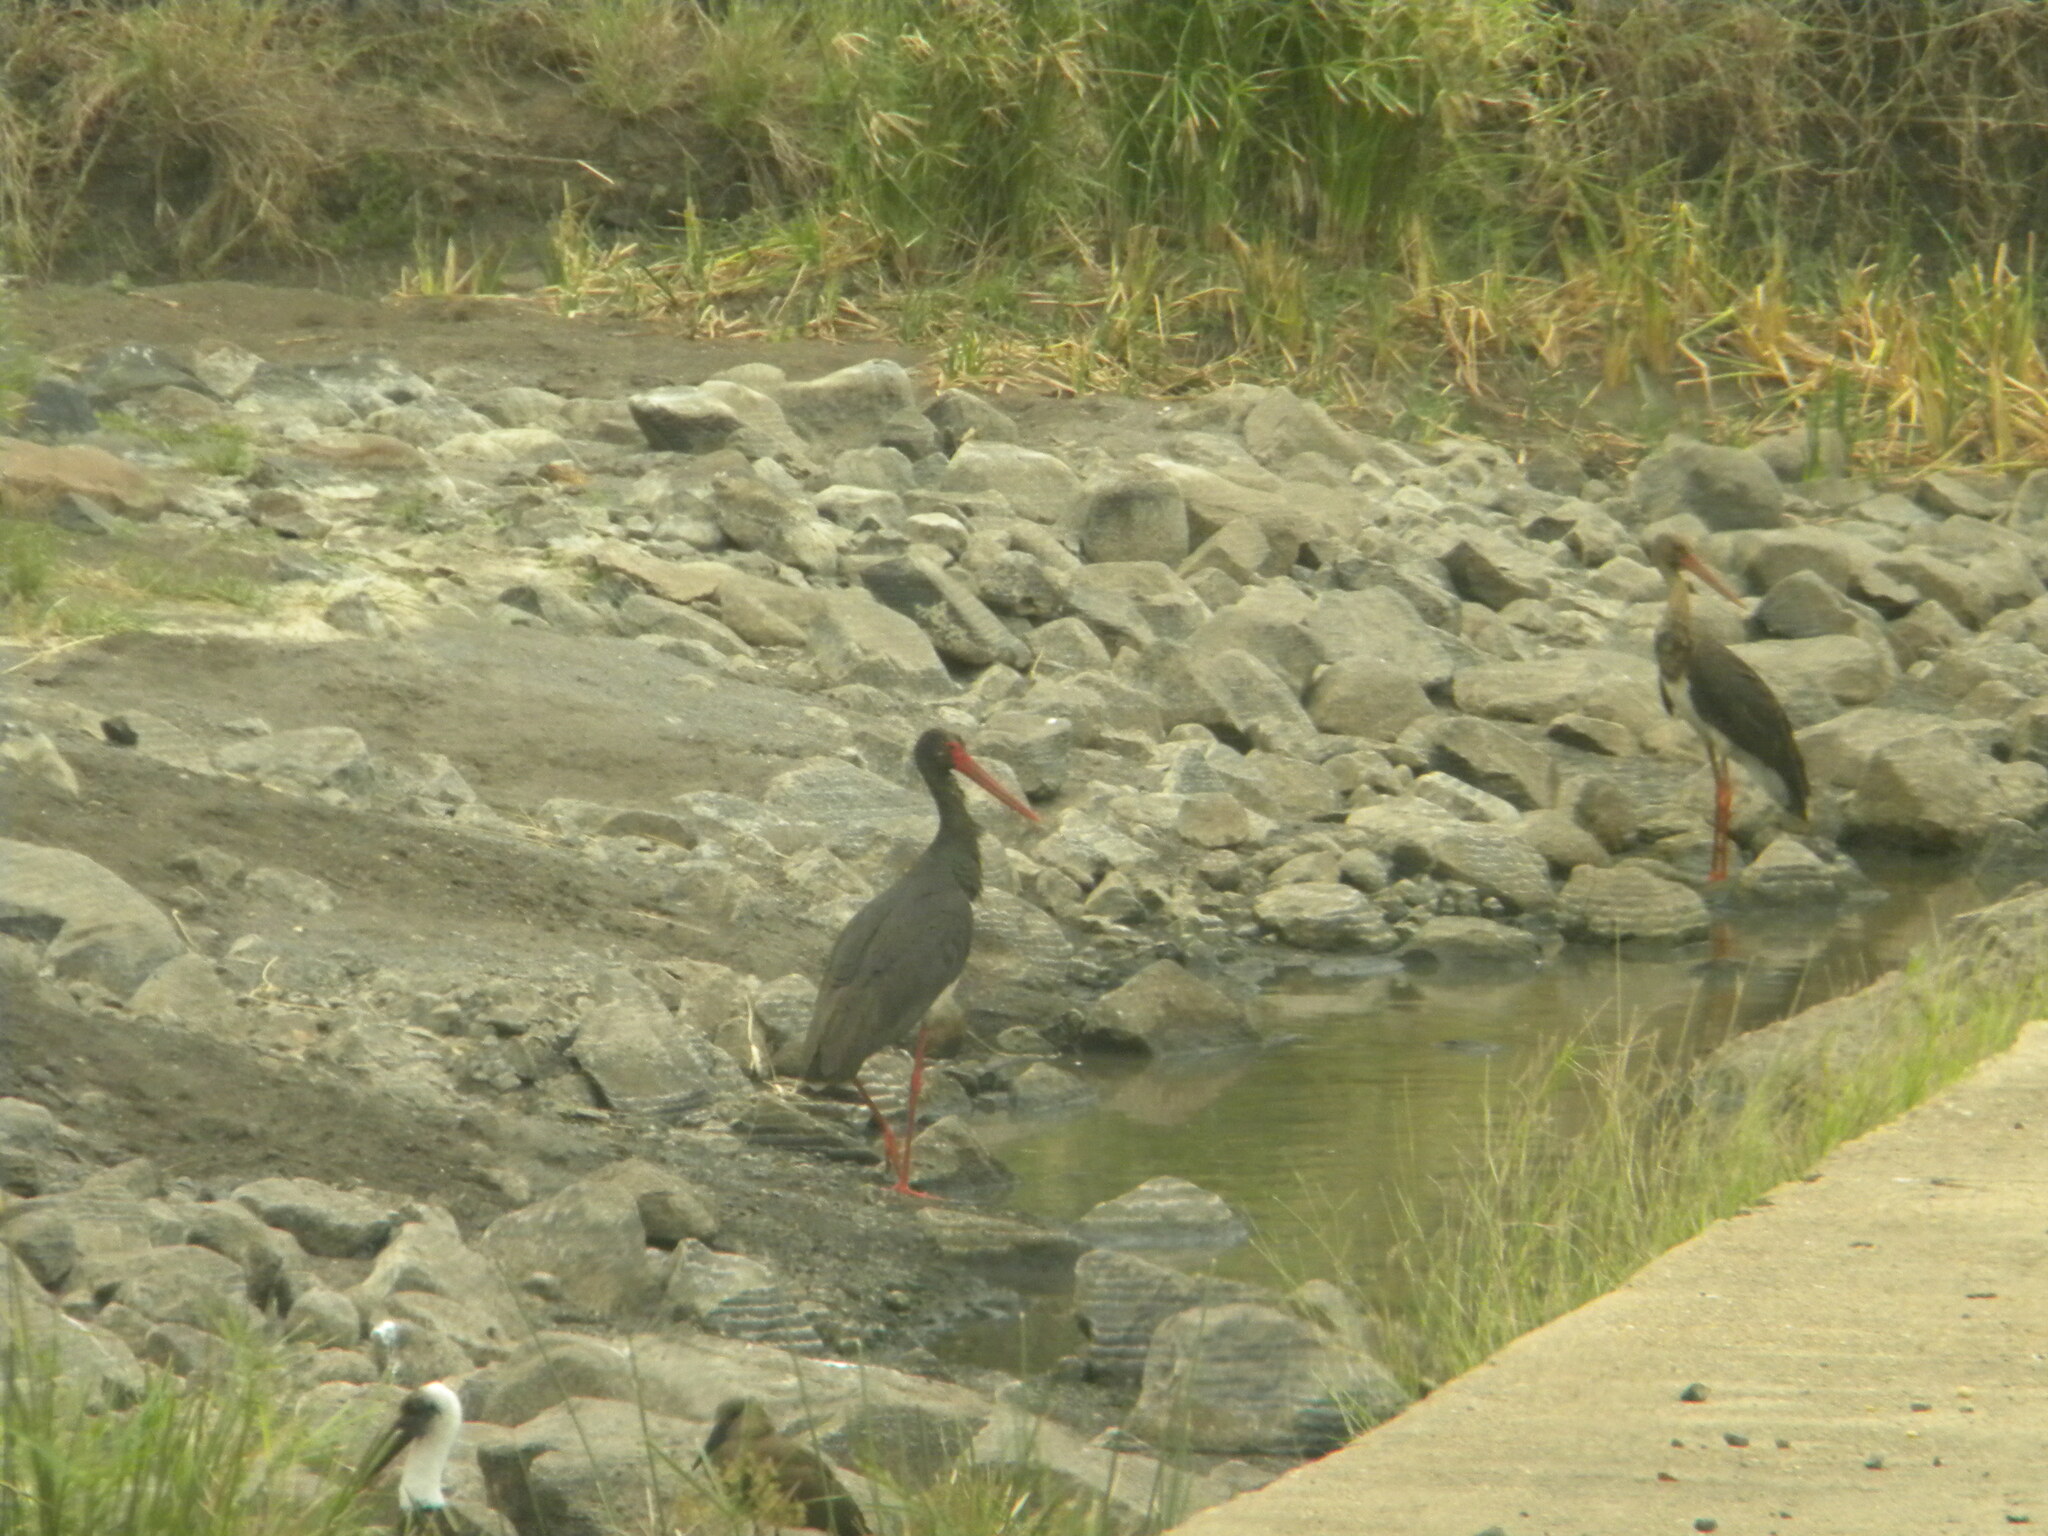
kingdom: Animalia
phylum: Chordata
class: Aves
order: Ciconiiformes
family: Ciconiidae
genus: Ciconia
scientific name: Ciconia nigra
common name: Black stork
